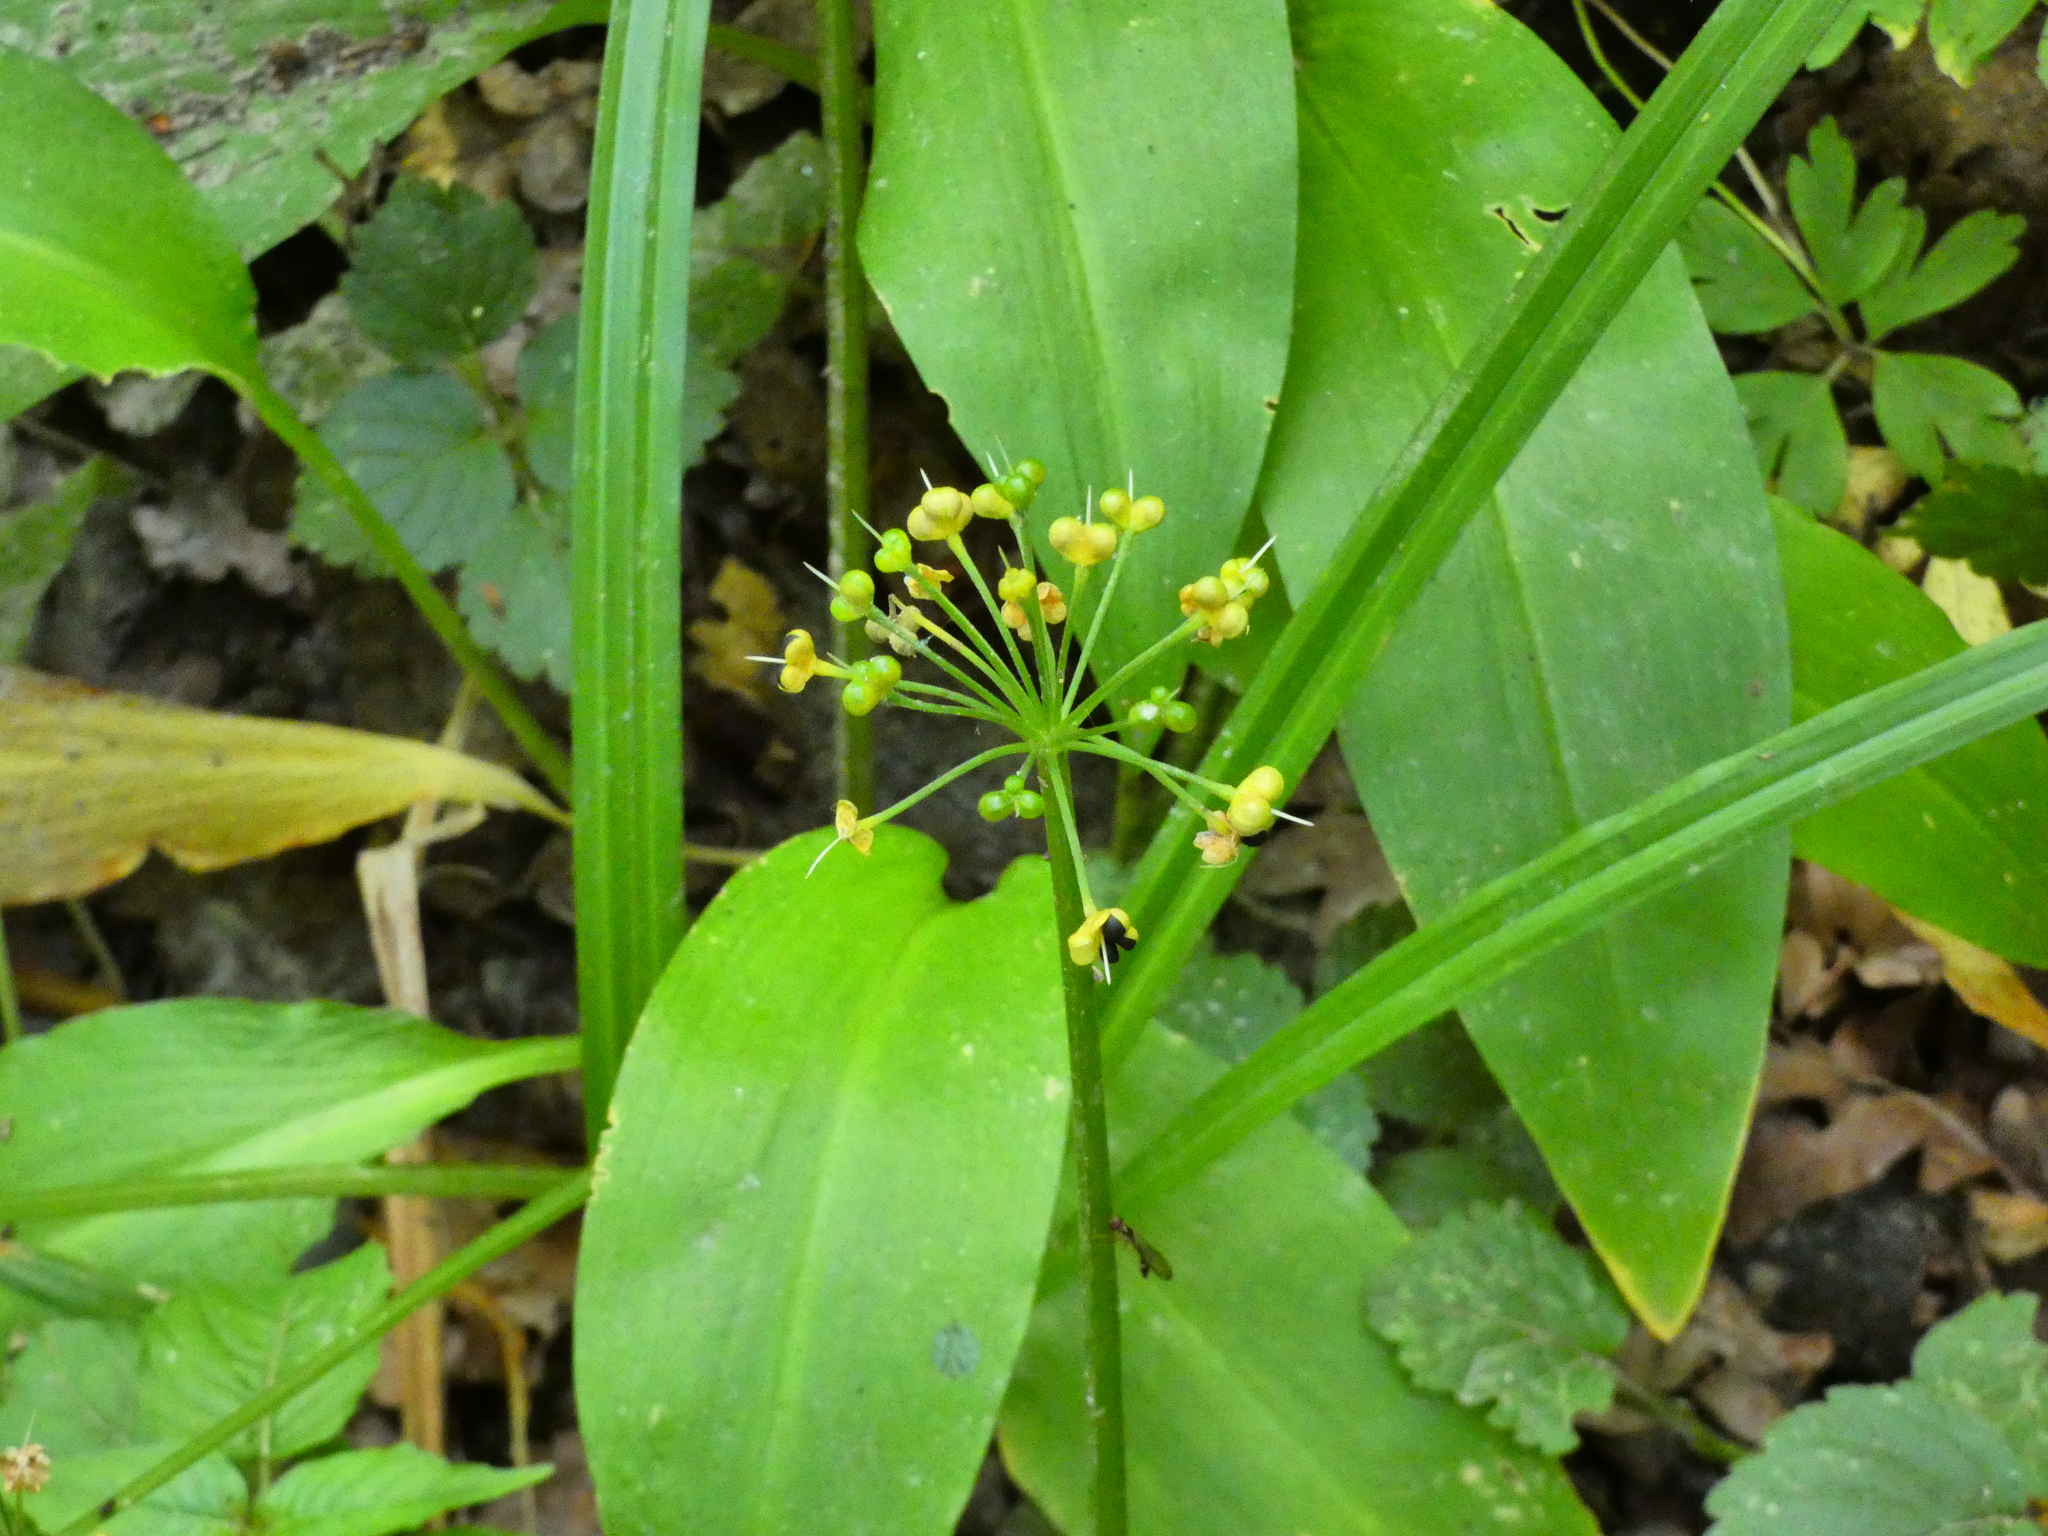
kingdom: Plantae
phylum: Tracheophyta
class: Liliopsida
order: Asparagales
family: Amaryllidaceae
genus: Allium
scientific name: Allium ursinum
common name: Ramsons
